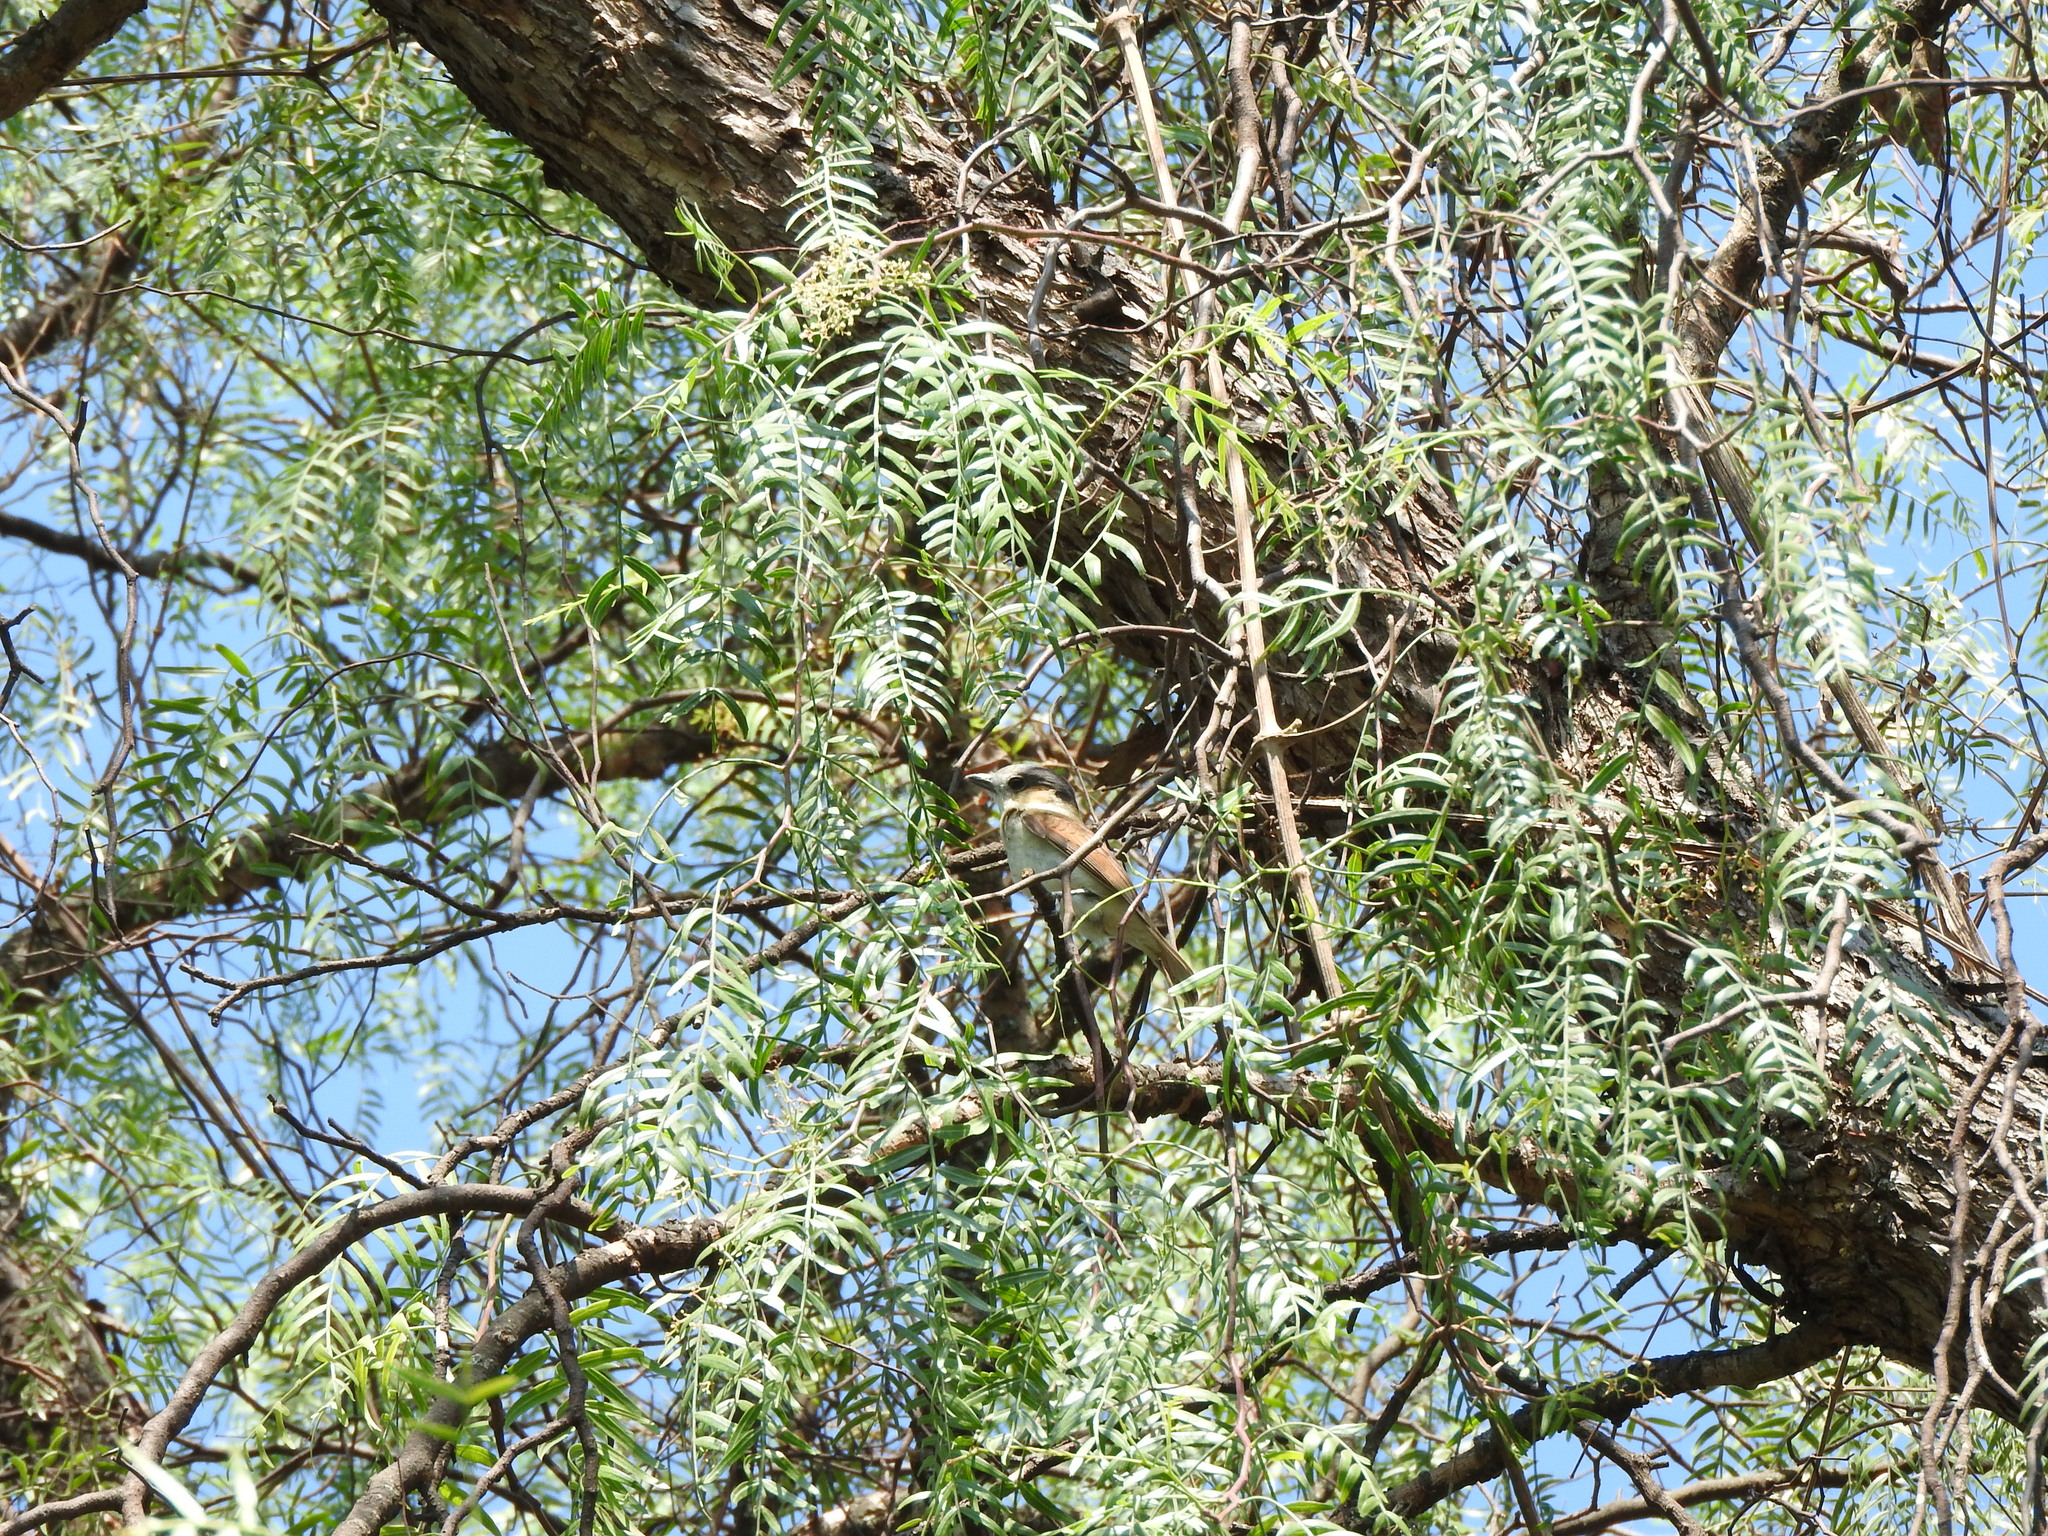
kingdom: Animalia
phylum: Chordata
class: Aves
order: Passeriformes
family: Cotingidae
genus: Pachyramphus
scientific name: Pachyramphus aglaiae
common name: Rose-throated becard
